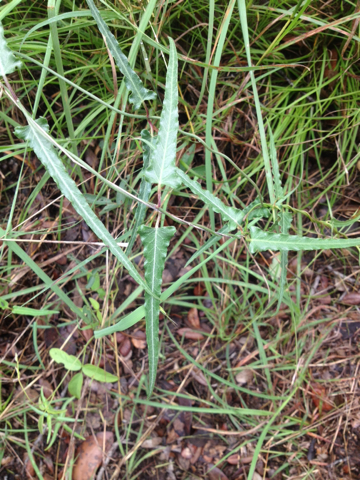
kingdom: Plantae
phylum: Tracheophyta
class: Magnoliopsida
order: Gentianales
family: Apocynaceae
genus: Funastrum
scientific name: Funastrum crispum
